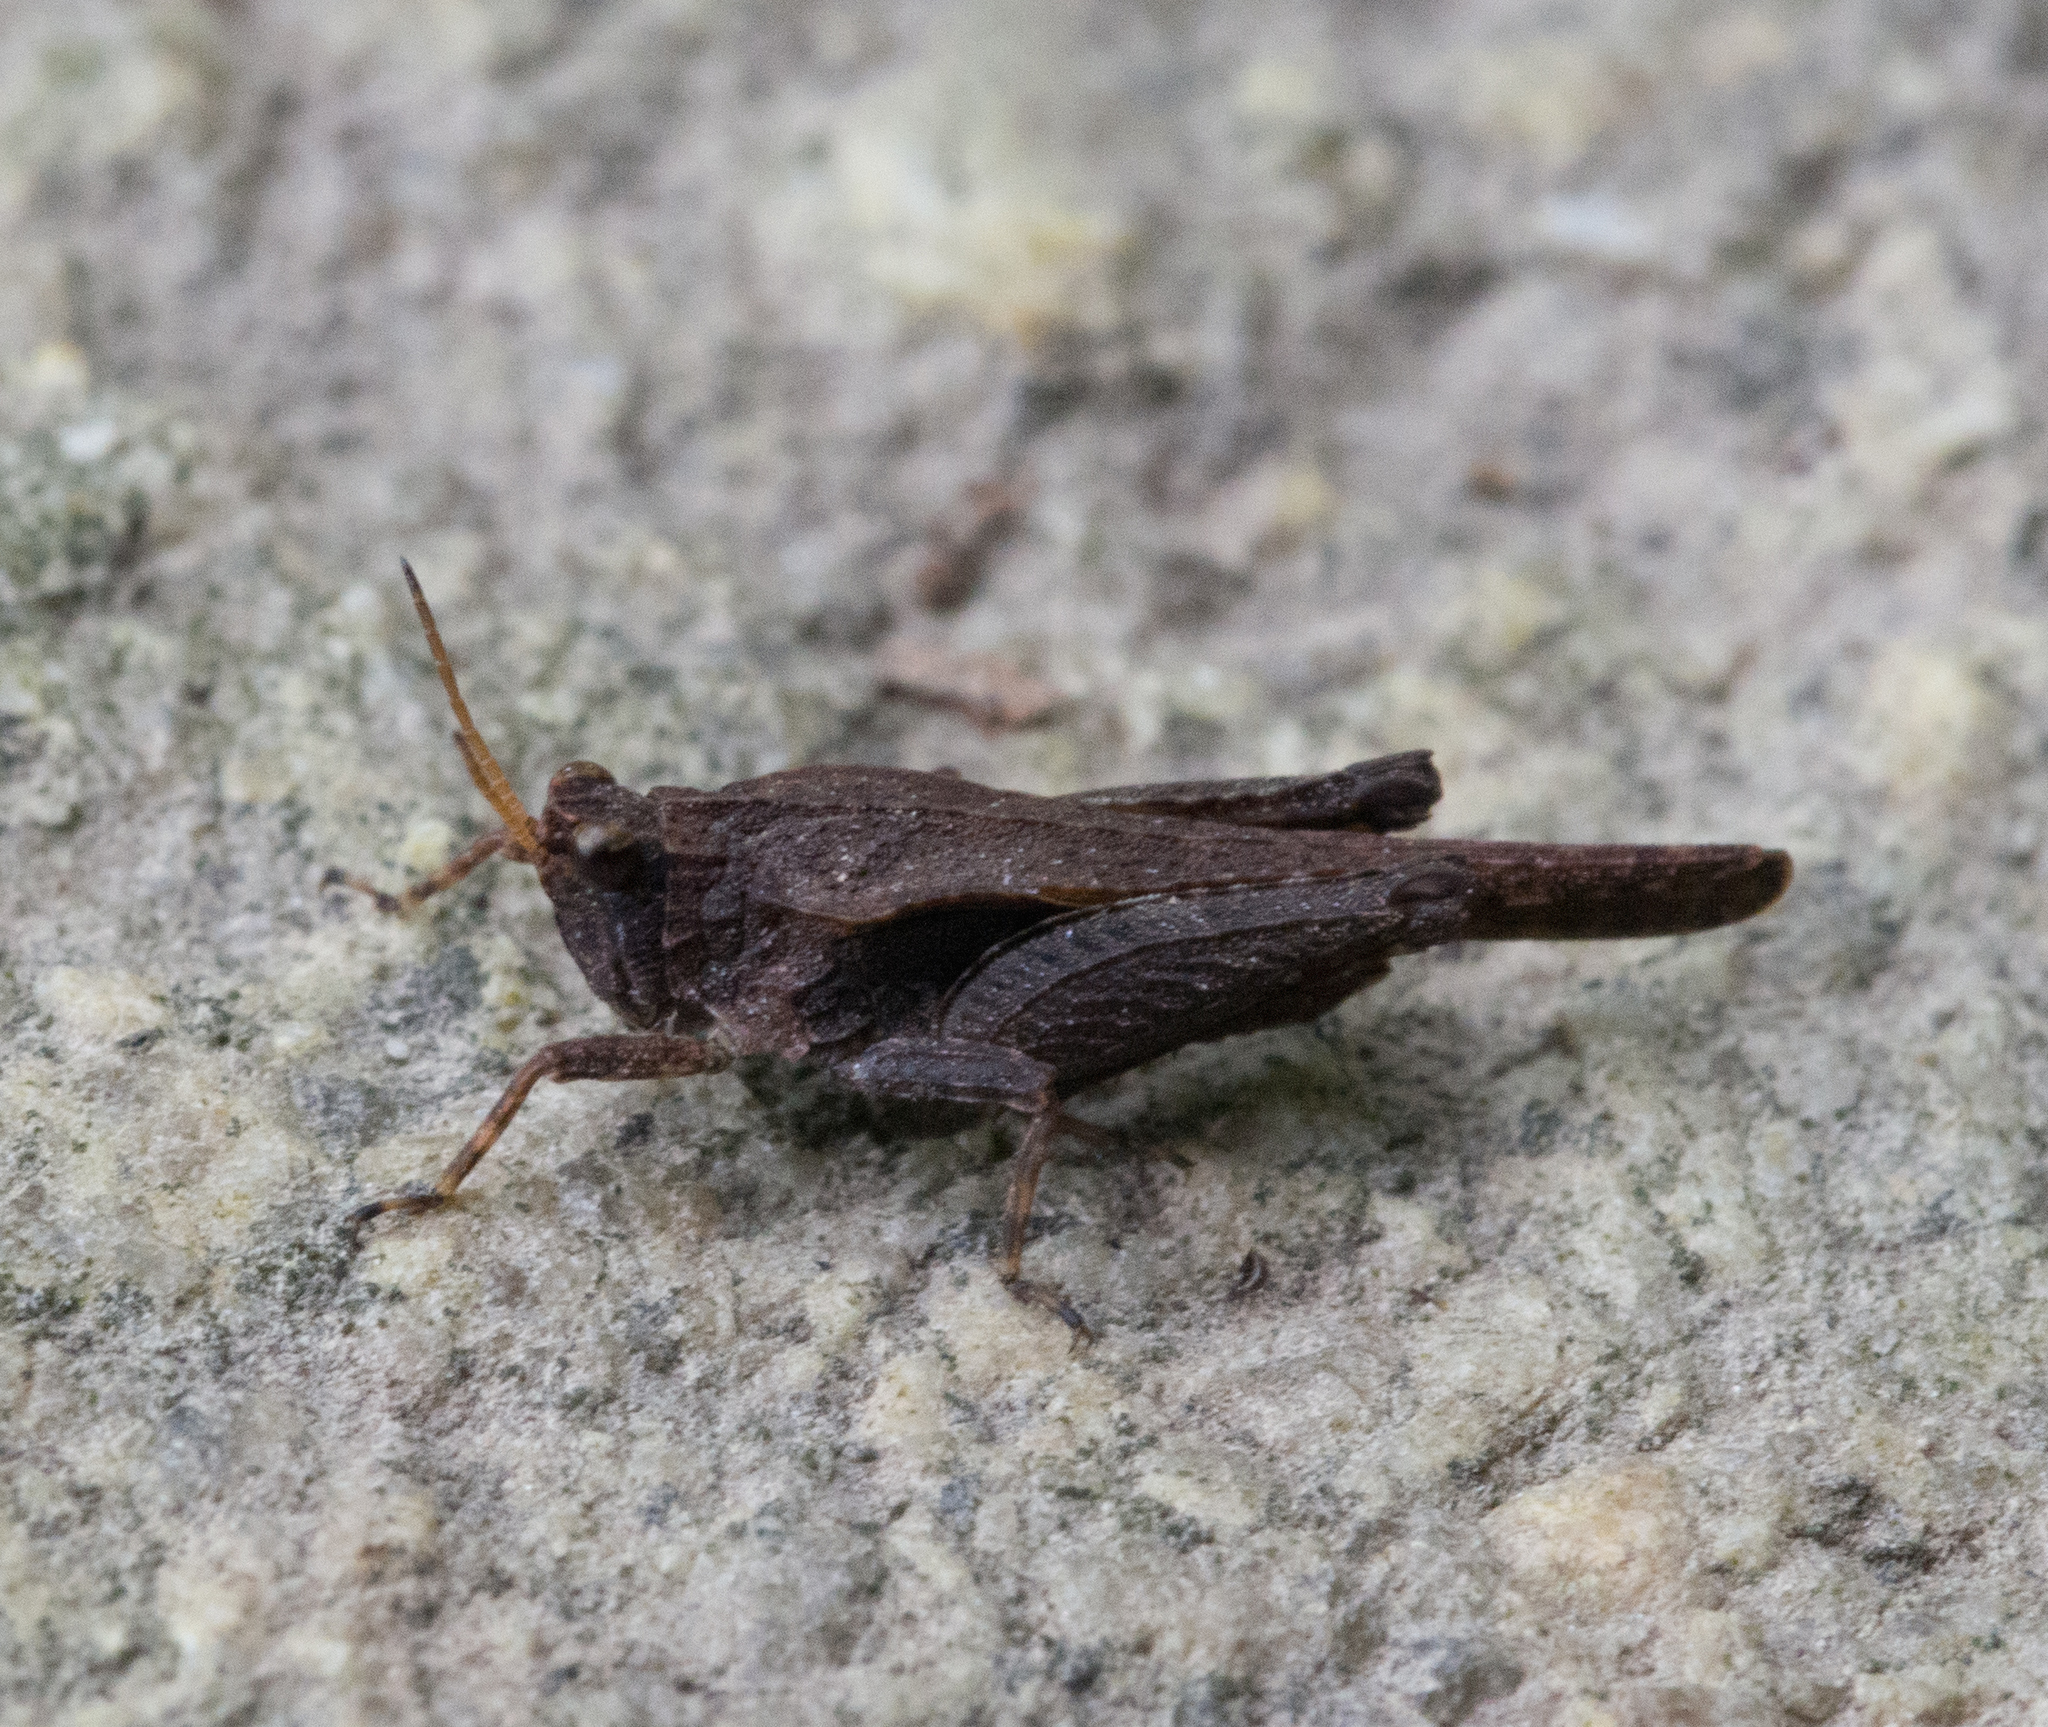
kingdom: Animalia
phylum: Arthropoda
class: Insecta
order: Orthoptera
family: Tetrigidae
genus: Tetrix
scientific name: Tetrix subulata
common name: Slender ground-hopper
